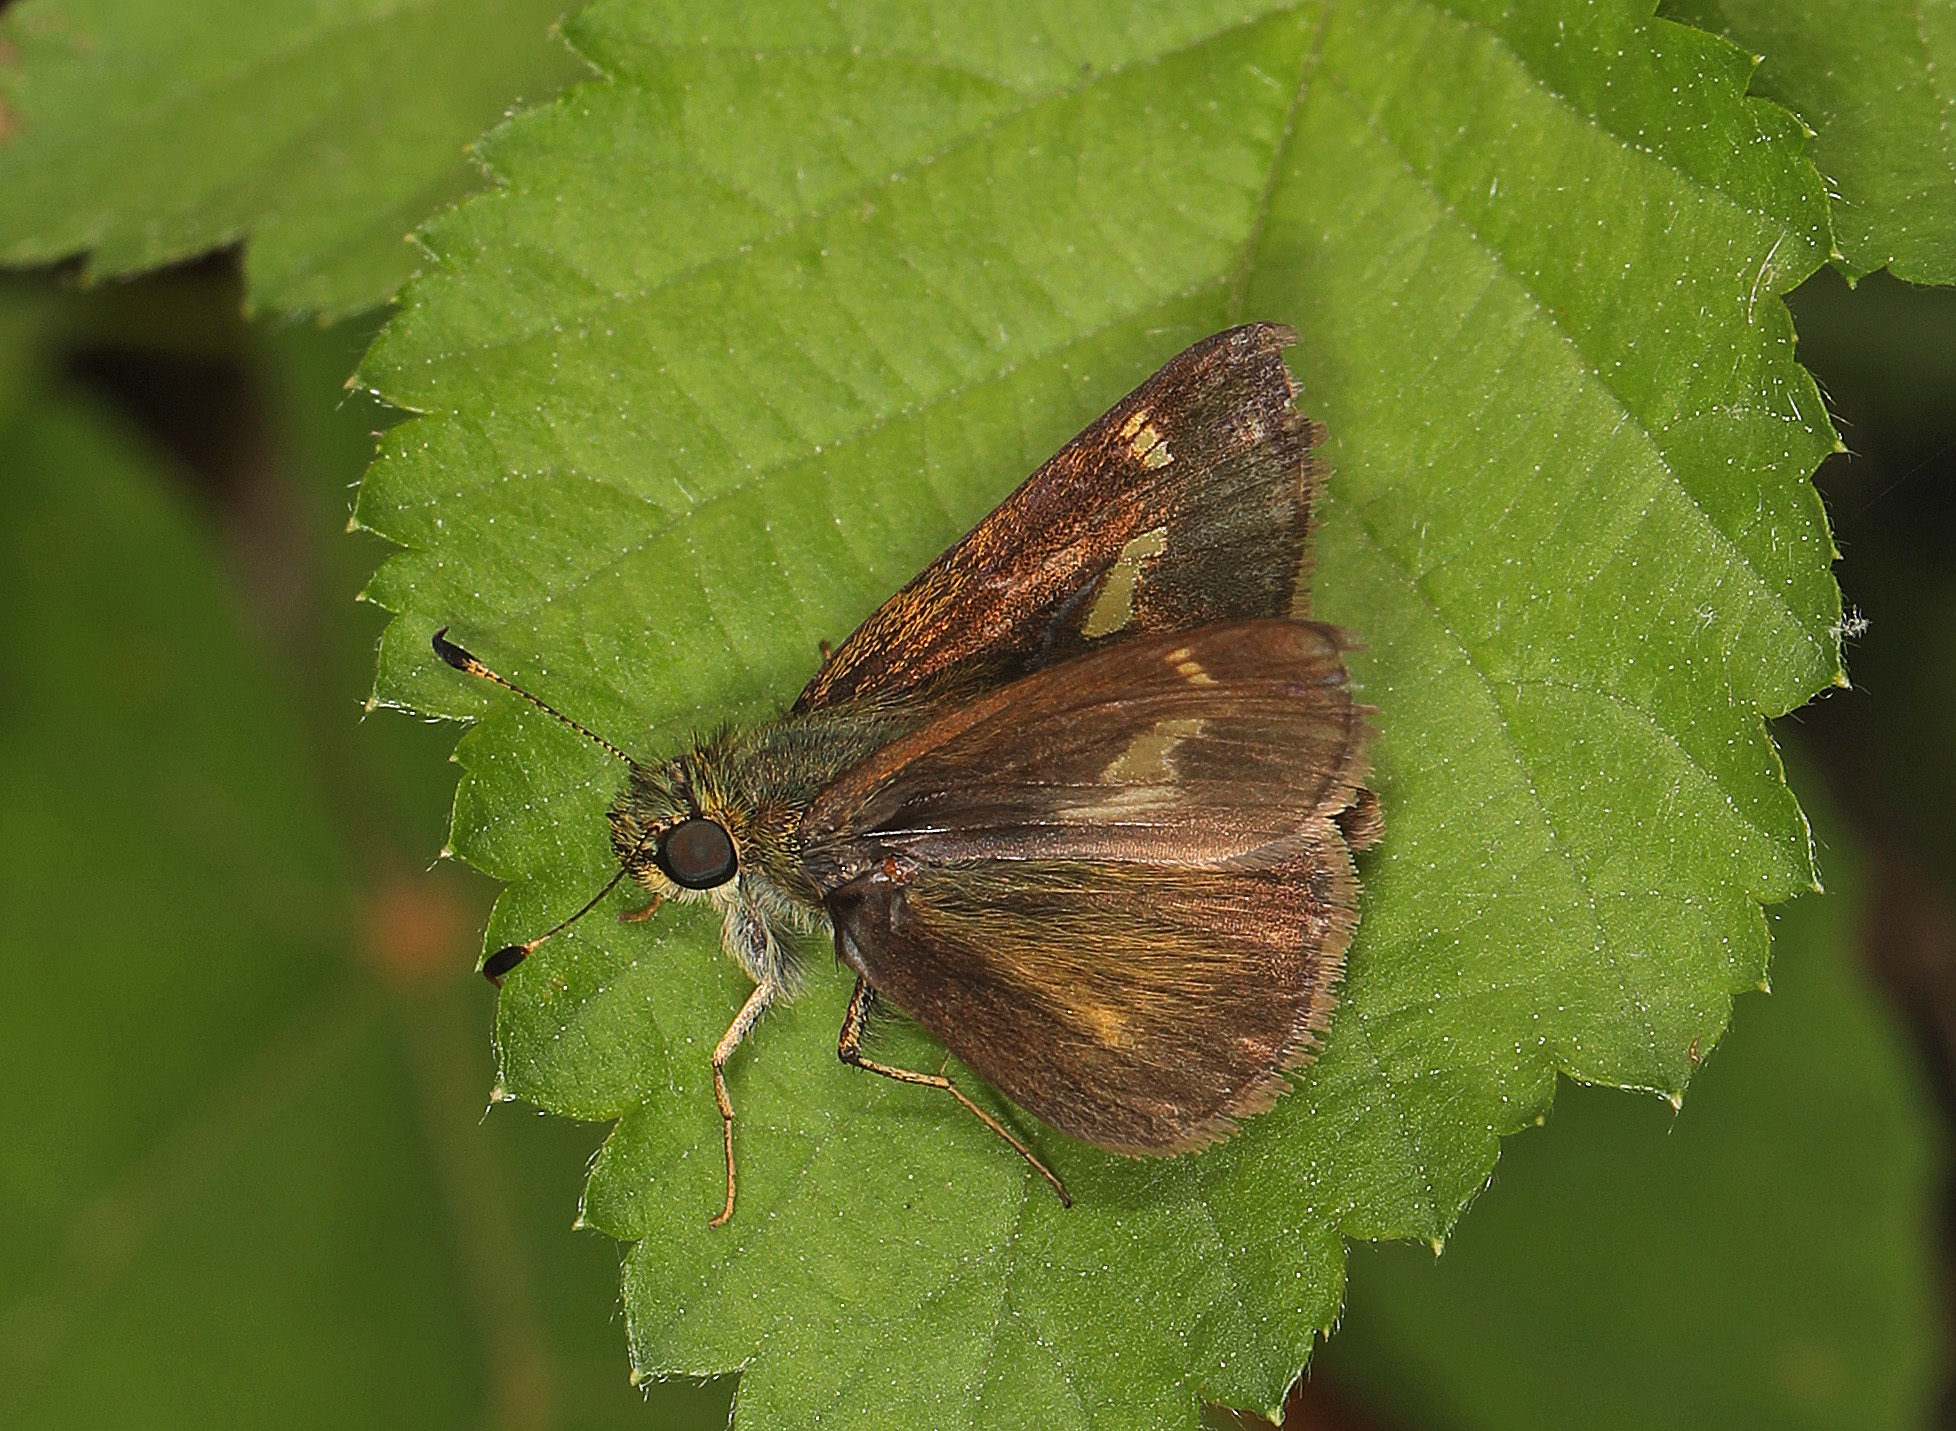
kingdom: Animalia
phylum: Arthropoda
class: Insecta
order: Lepidoptera
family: Hesperiidae
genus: Vernia
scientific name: Vernia verna
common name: Little glassywing
